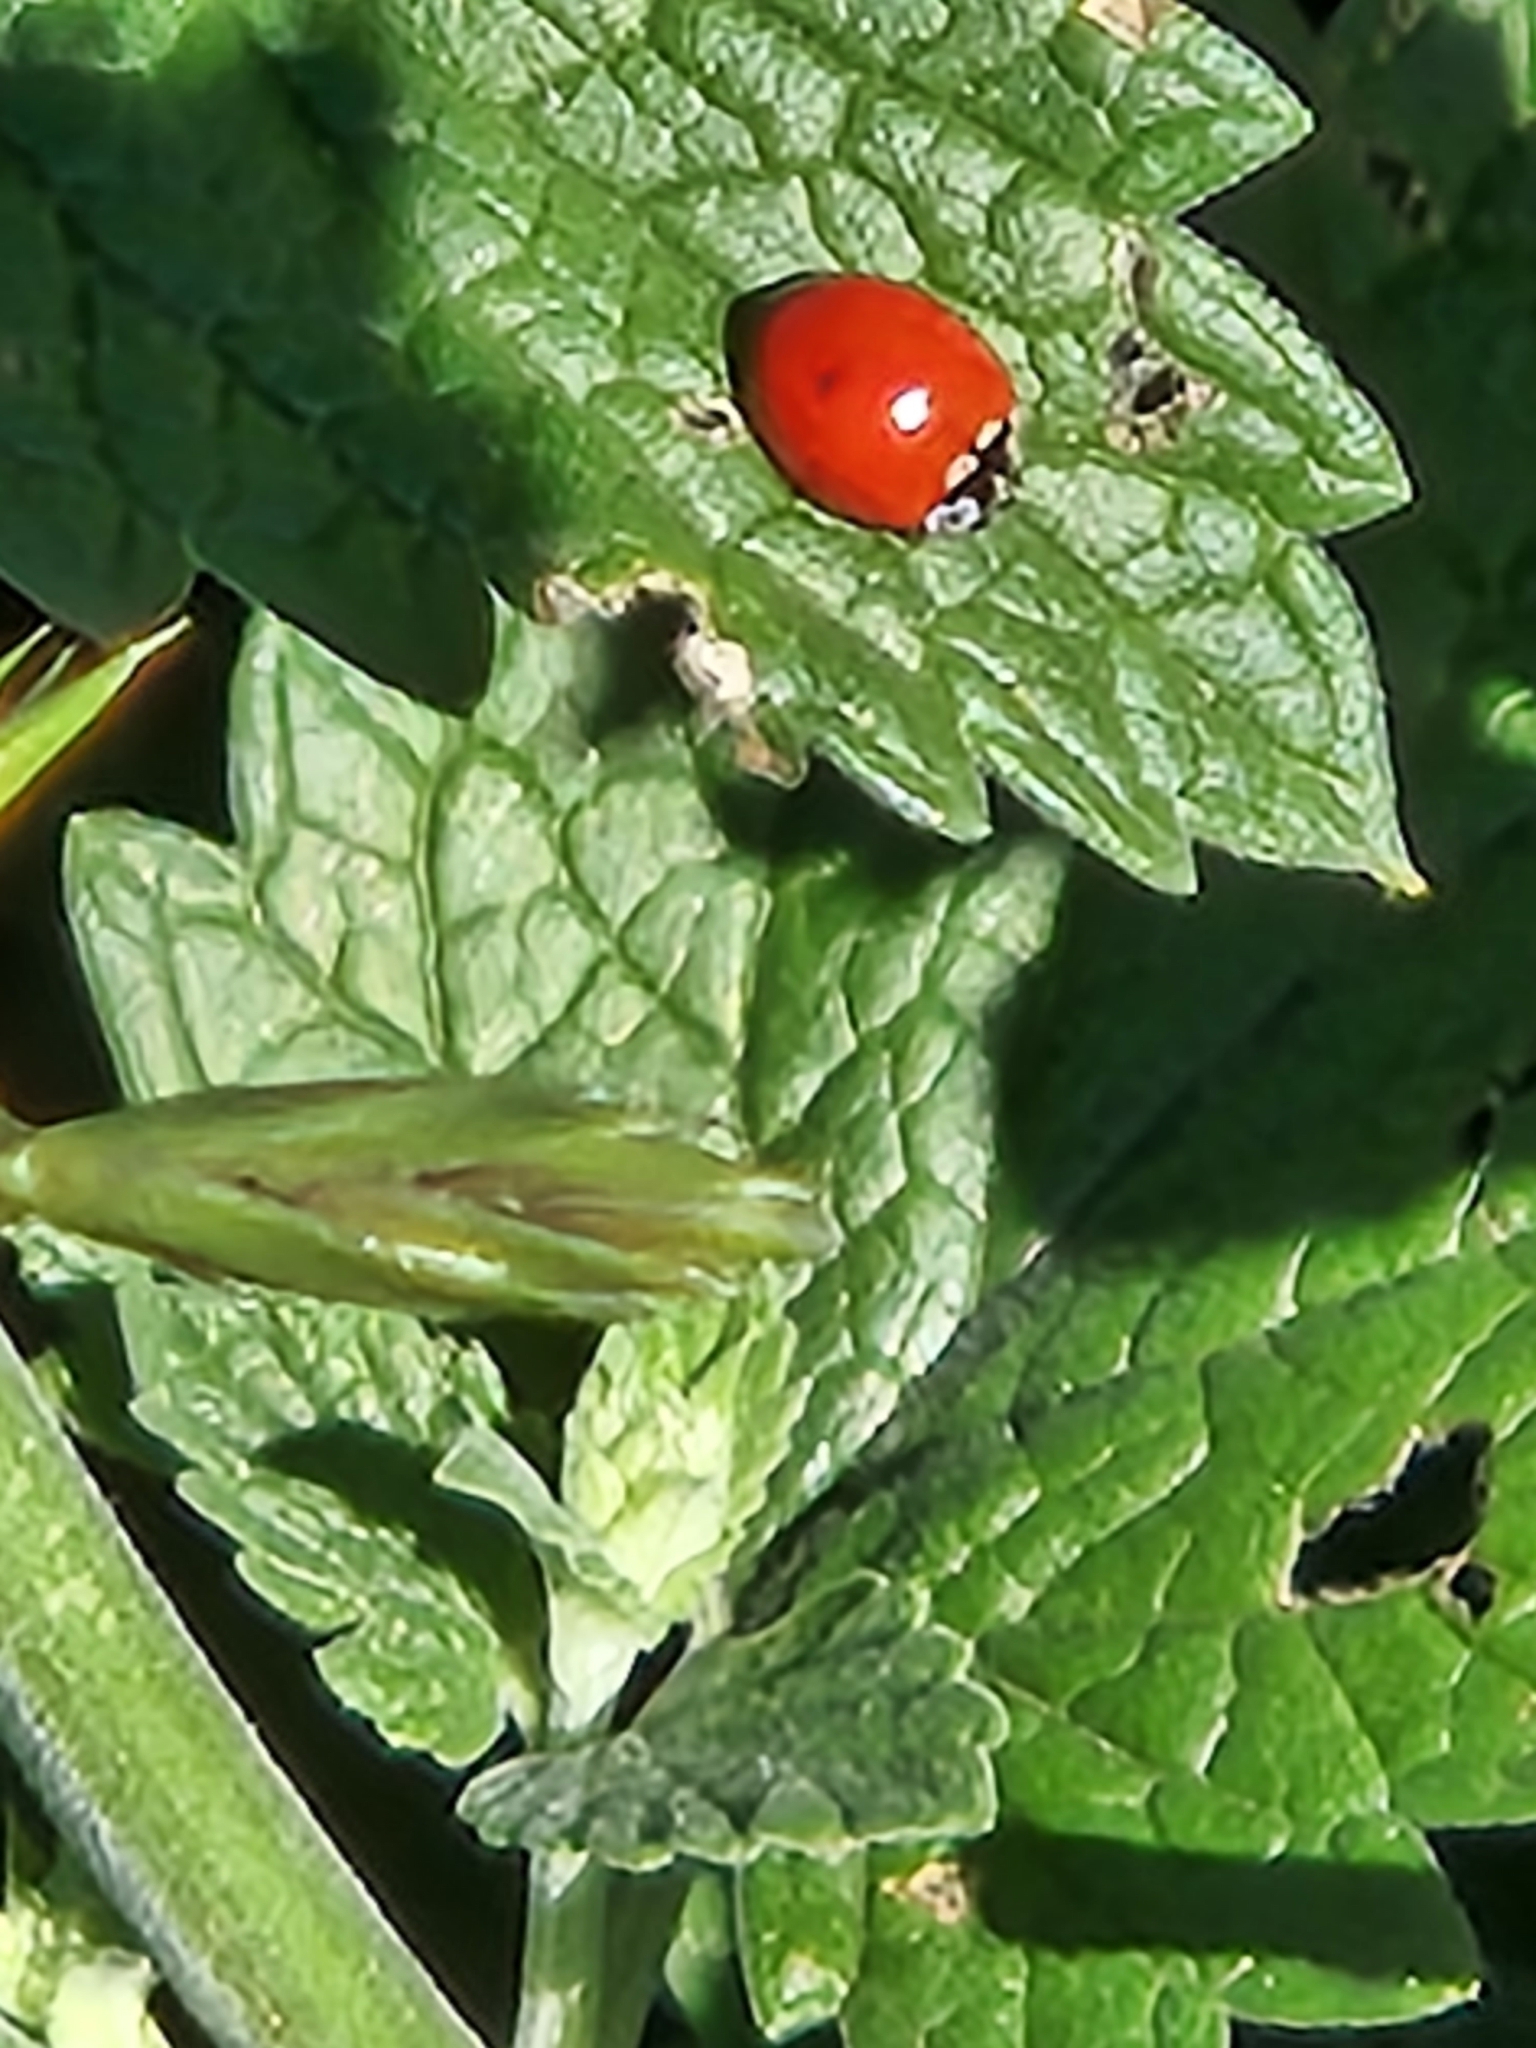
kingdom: Animalia
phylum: Arthropoda
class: Insecta
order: Coleoptera
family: Coccinellidae
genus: Cycloneda
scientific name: Cycloneda polita
